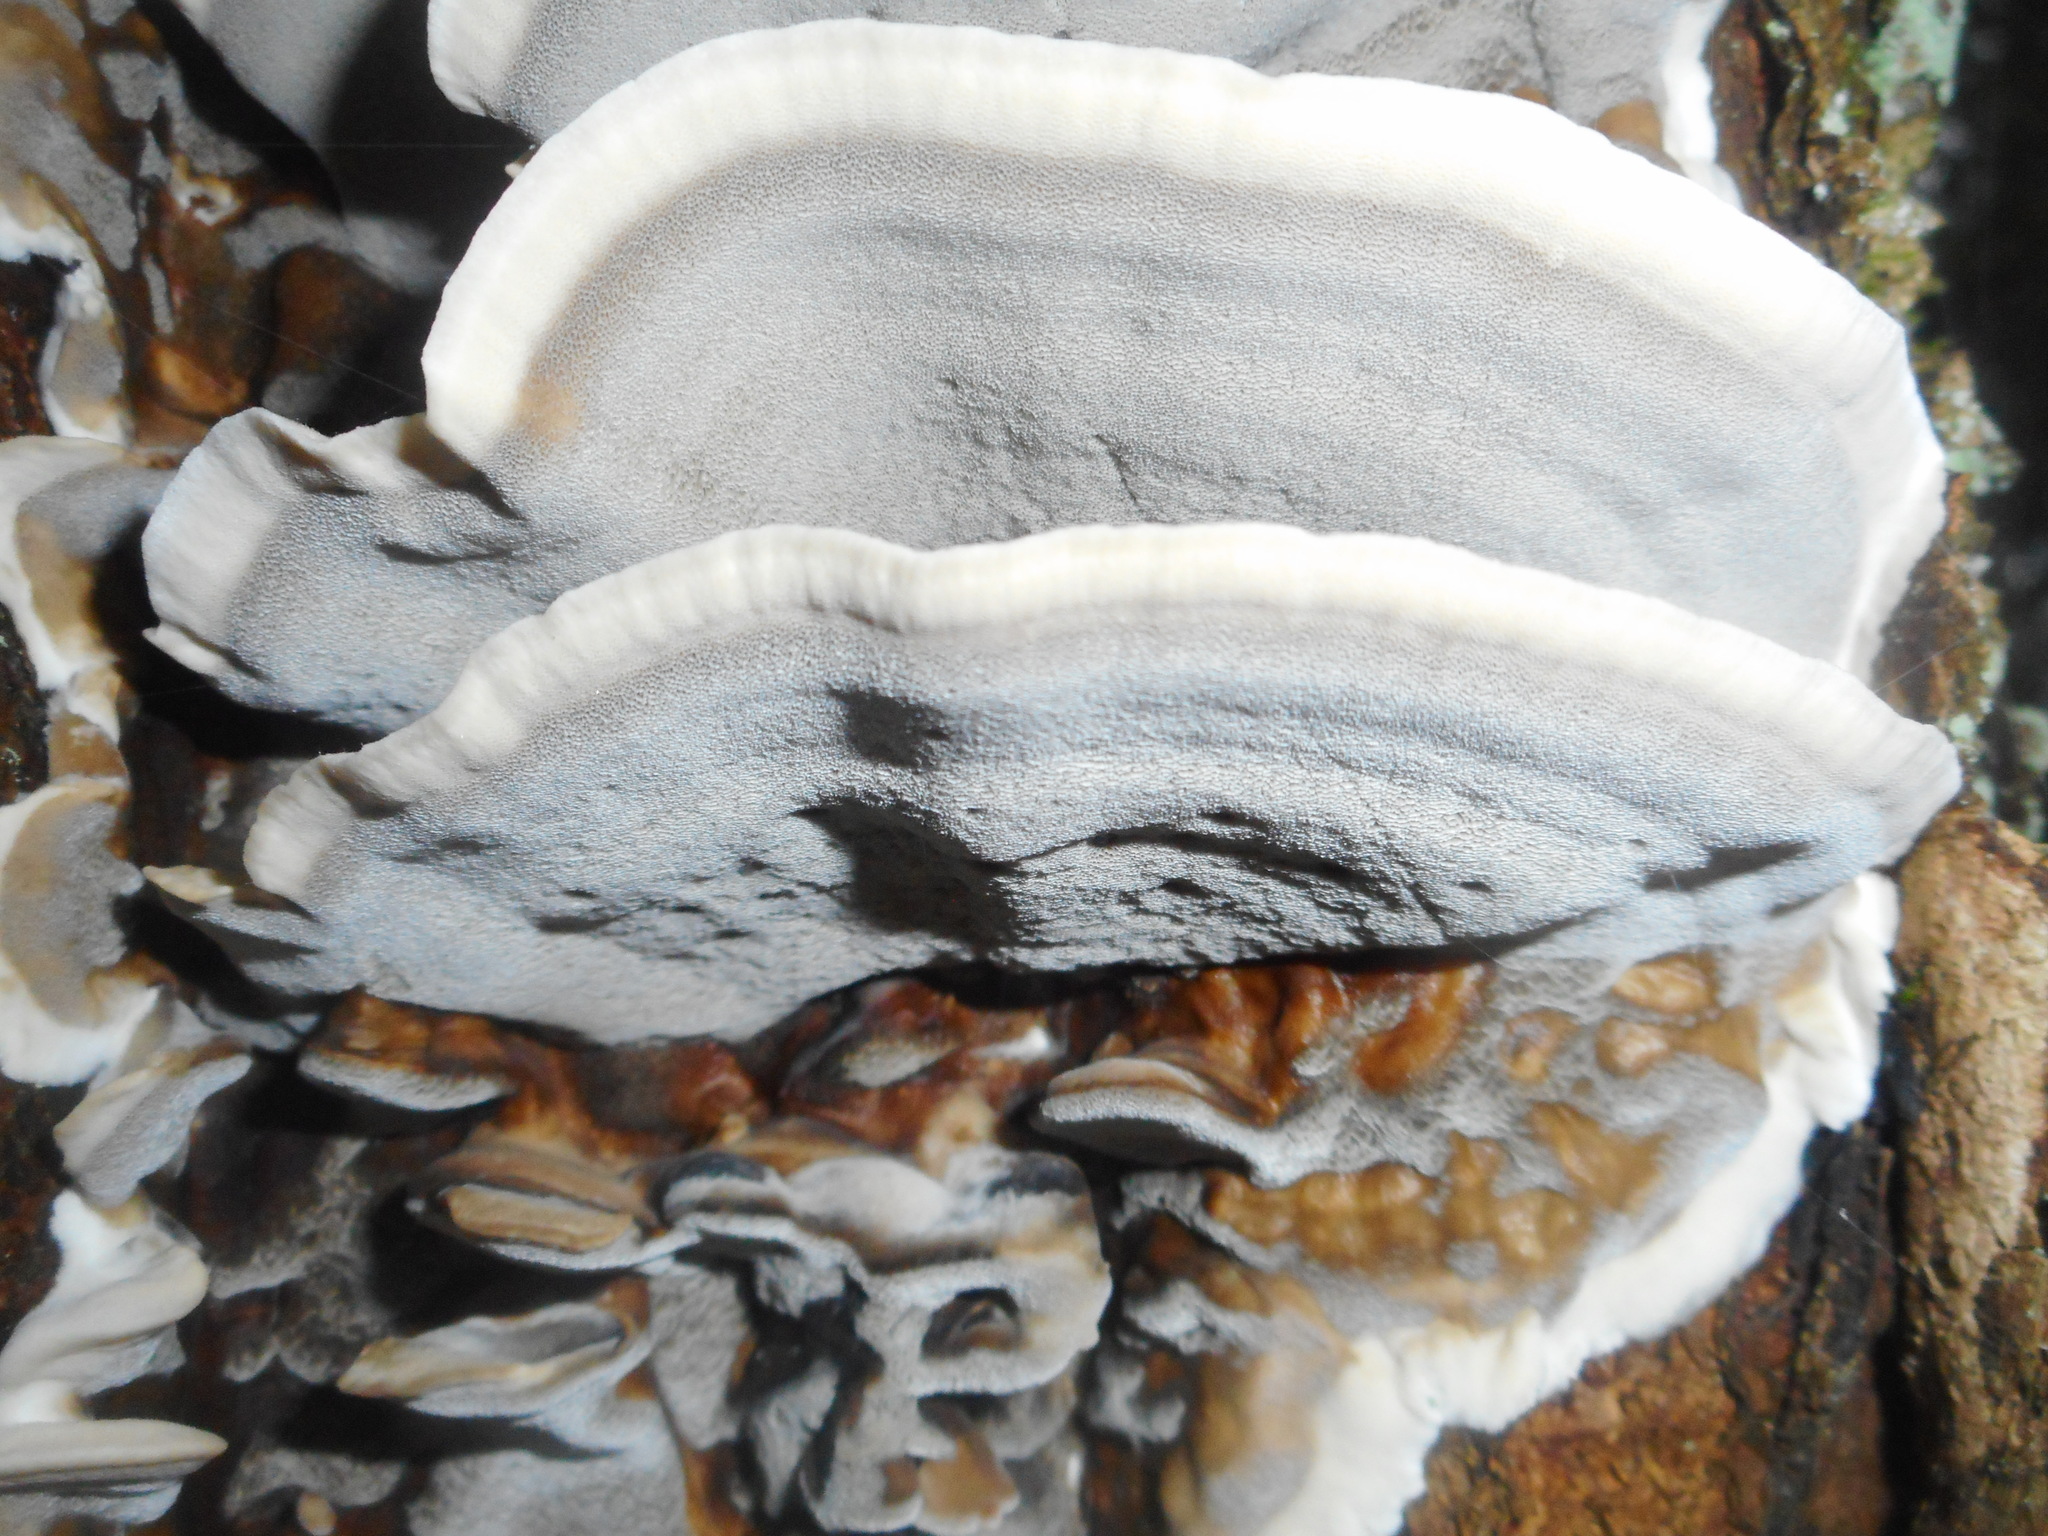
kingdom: Fungi
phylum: Basidiomycota
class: Agaricomycetes
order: Polyporales
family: Phanerochaetaceae
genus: Bjerkandera
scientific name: Bjerkandera adusta
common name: Smoky bracket
